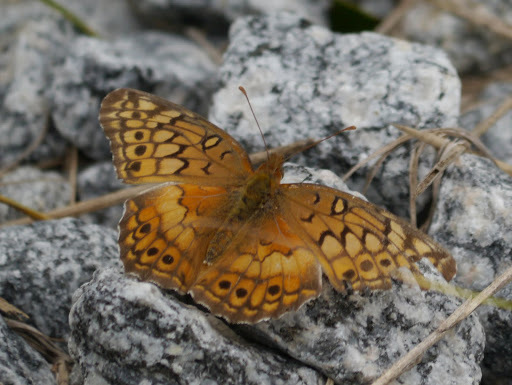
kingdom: Animalia
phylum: Arthropoda
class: Insecta
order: Lepidoptera
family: Nymphalidae
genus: Euptoieta
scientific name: Euptoieta claudia
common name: Variegated fritillary
